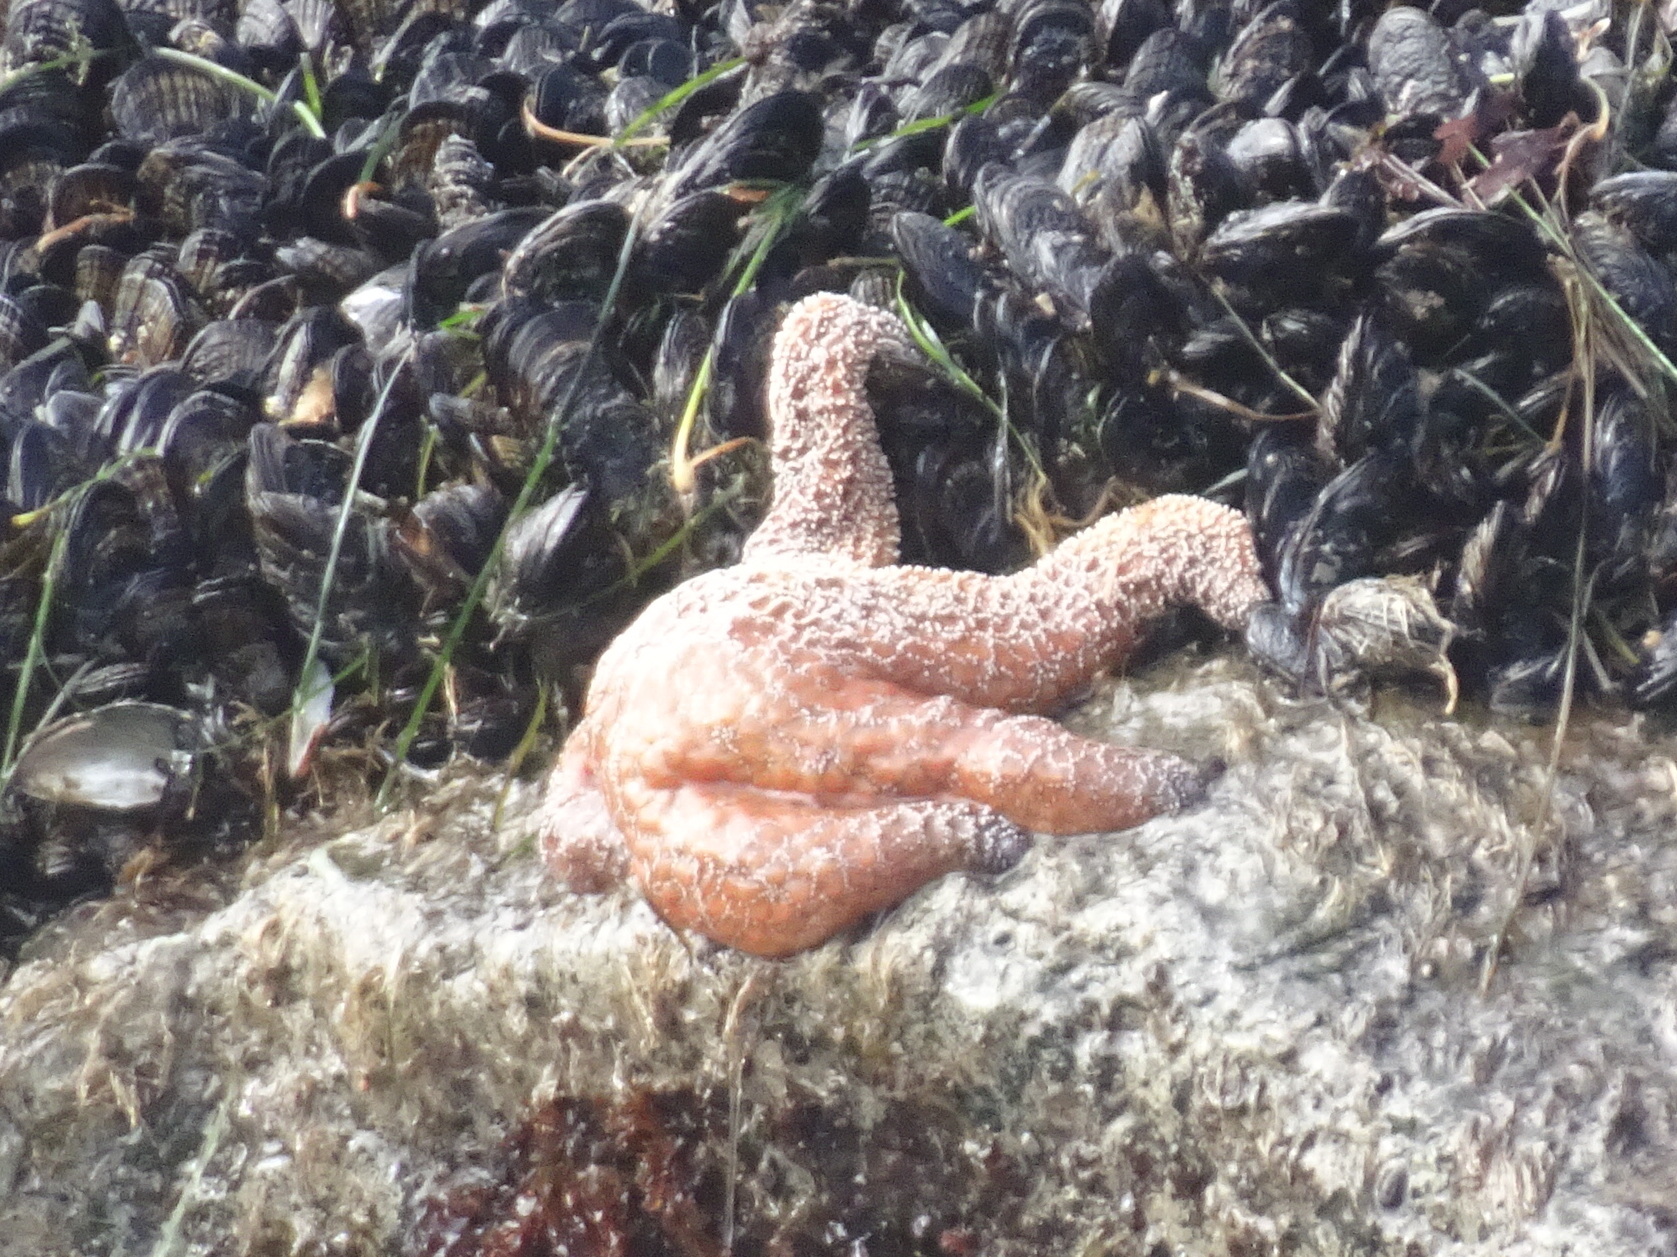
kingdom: Animalia
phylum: Echinodermata
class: Asteroidea
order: Forcipulatida
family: Asteriidae
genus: Pisaster
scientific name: Pisaster ochraceus
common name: Ochre stars
